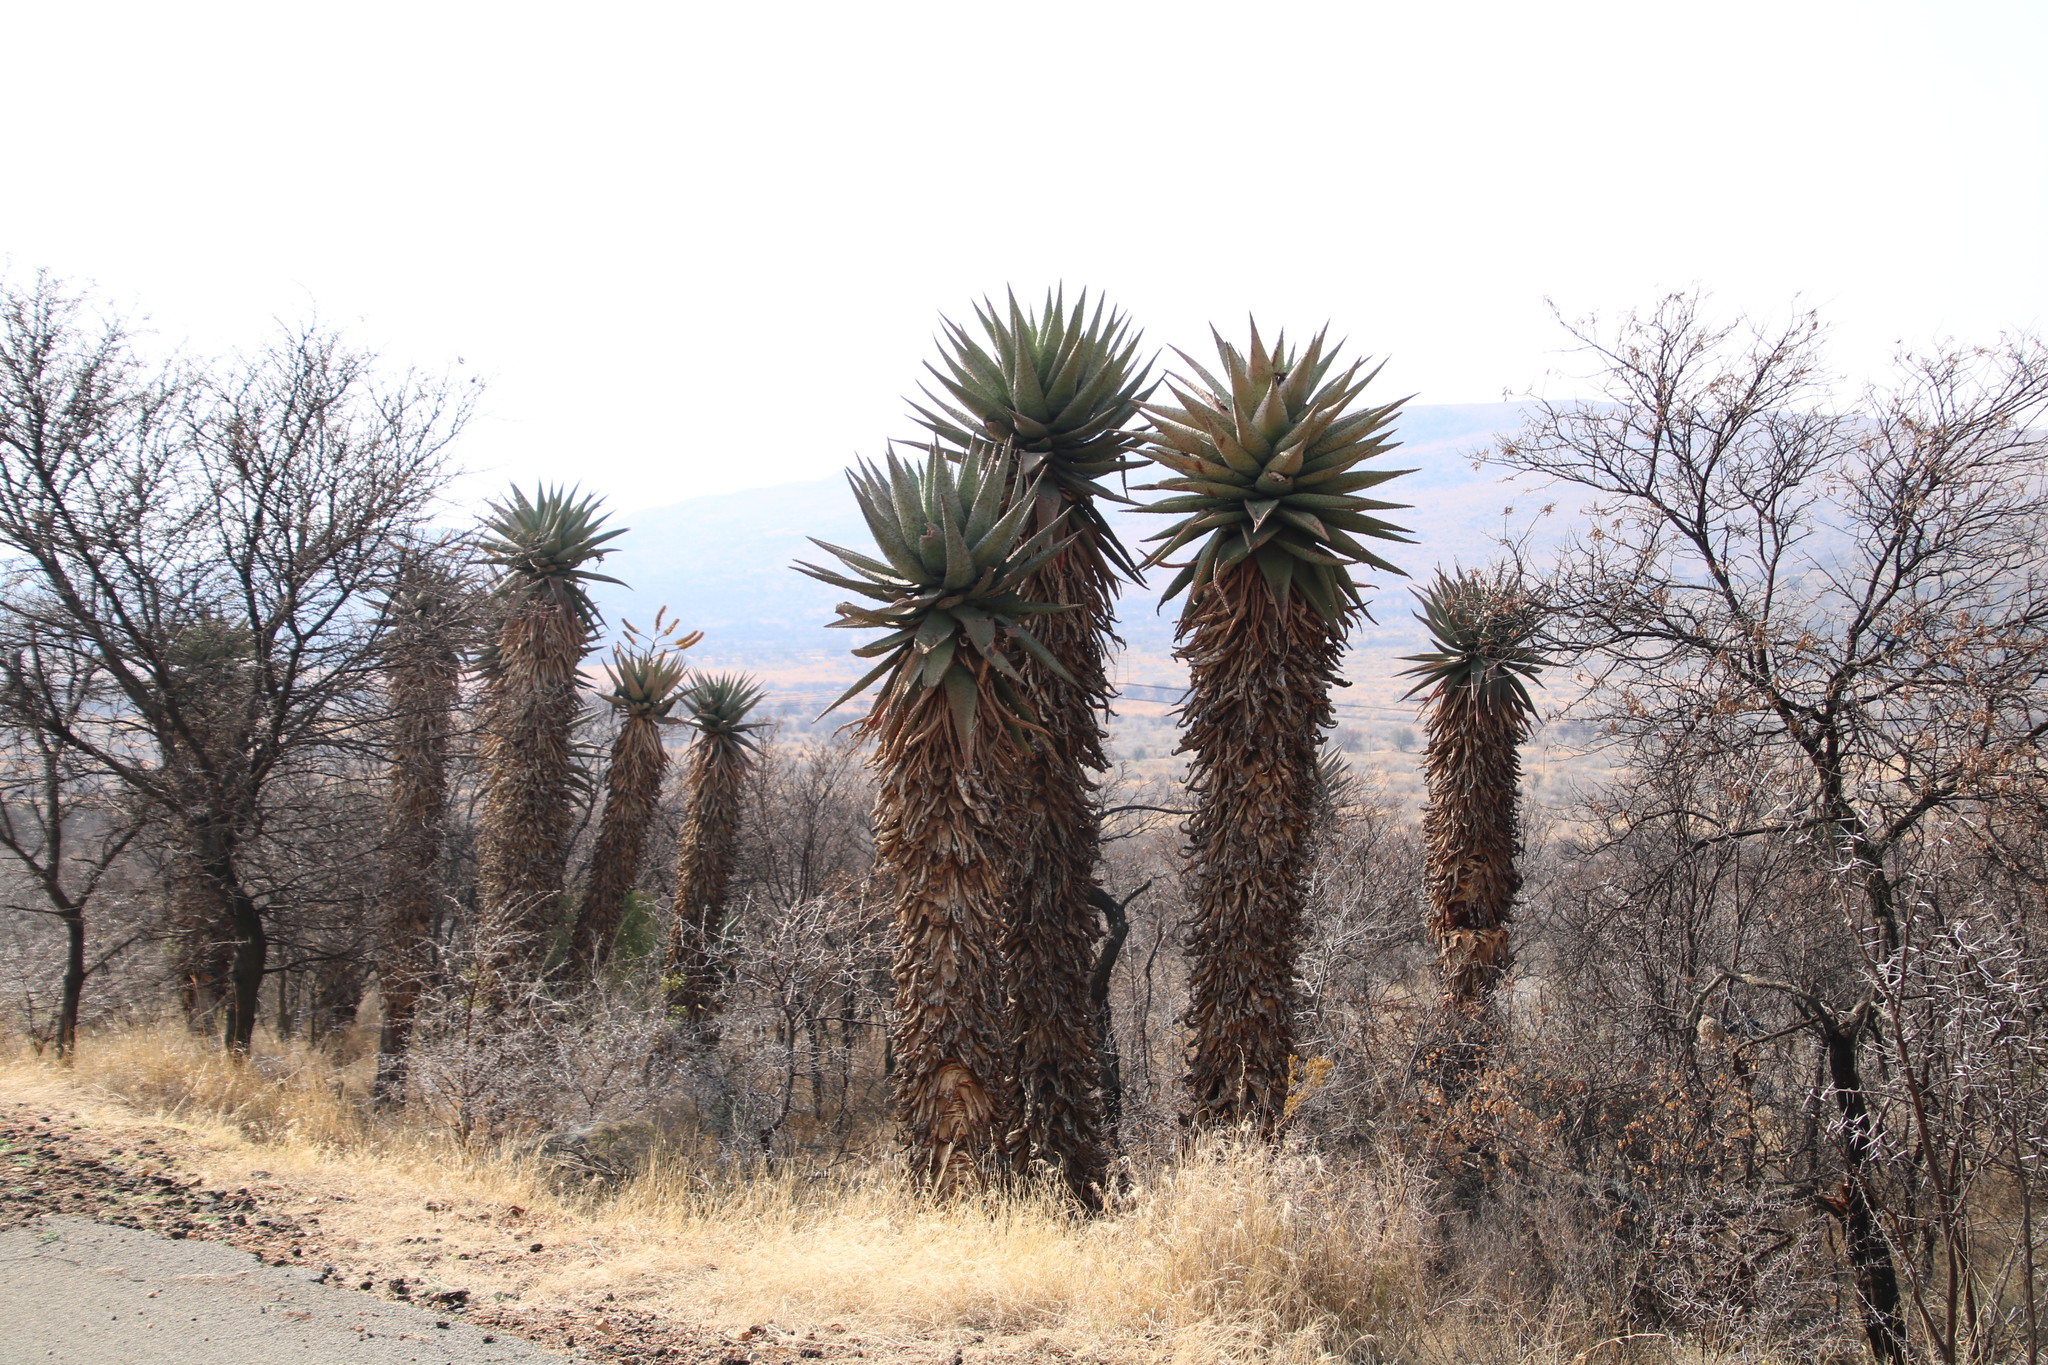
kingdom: Plantae
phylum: Tracheophyta
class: Liliopsida
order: Asparagales
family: Asphodelaceae
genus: Aloe
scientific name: Aloe marlothii
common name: Flat-flowered aloe
